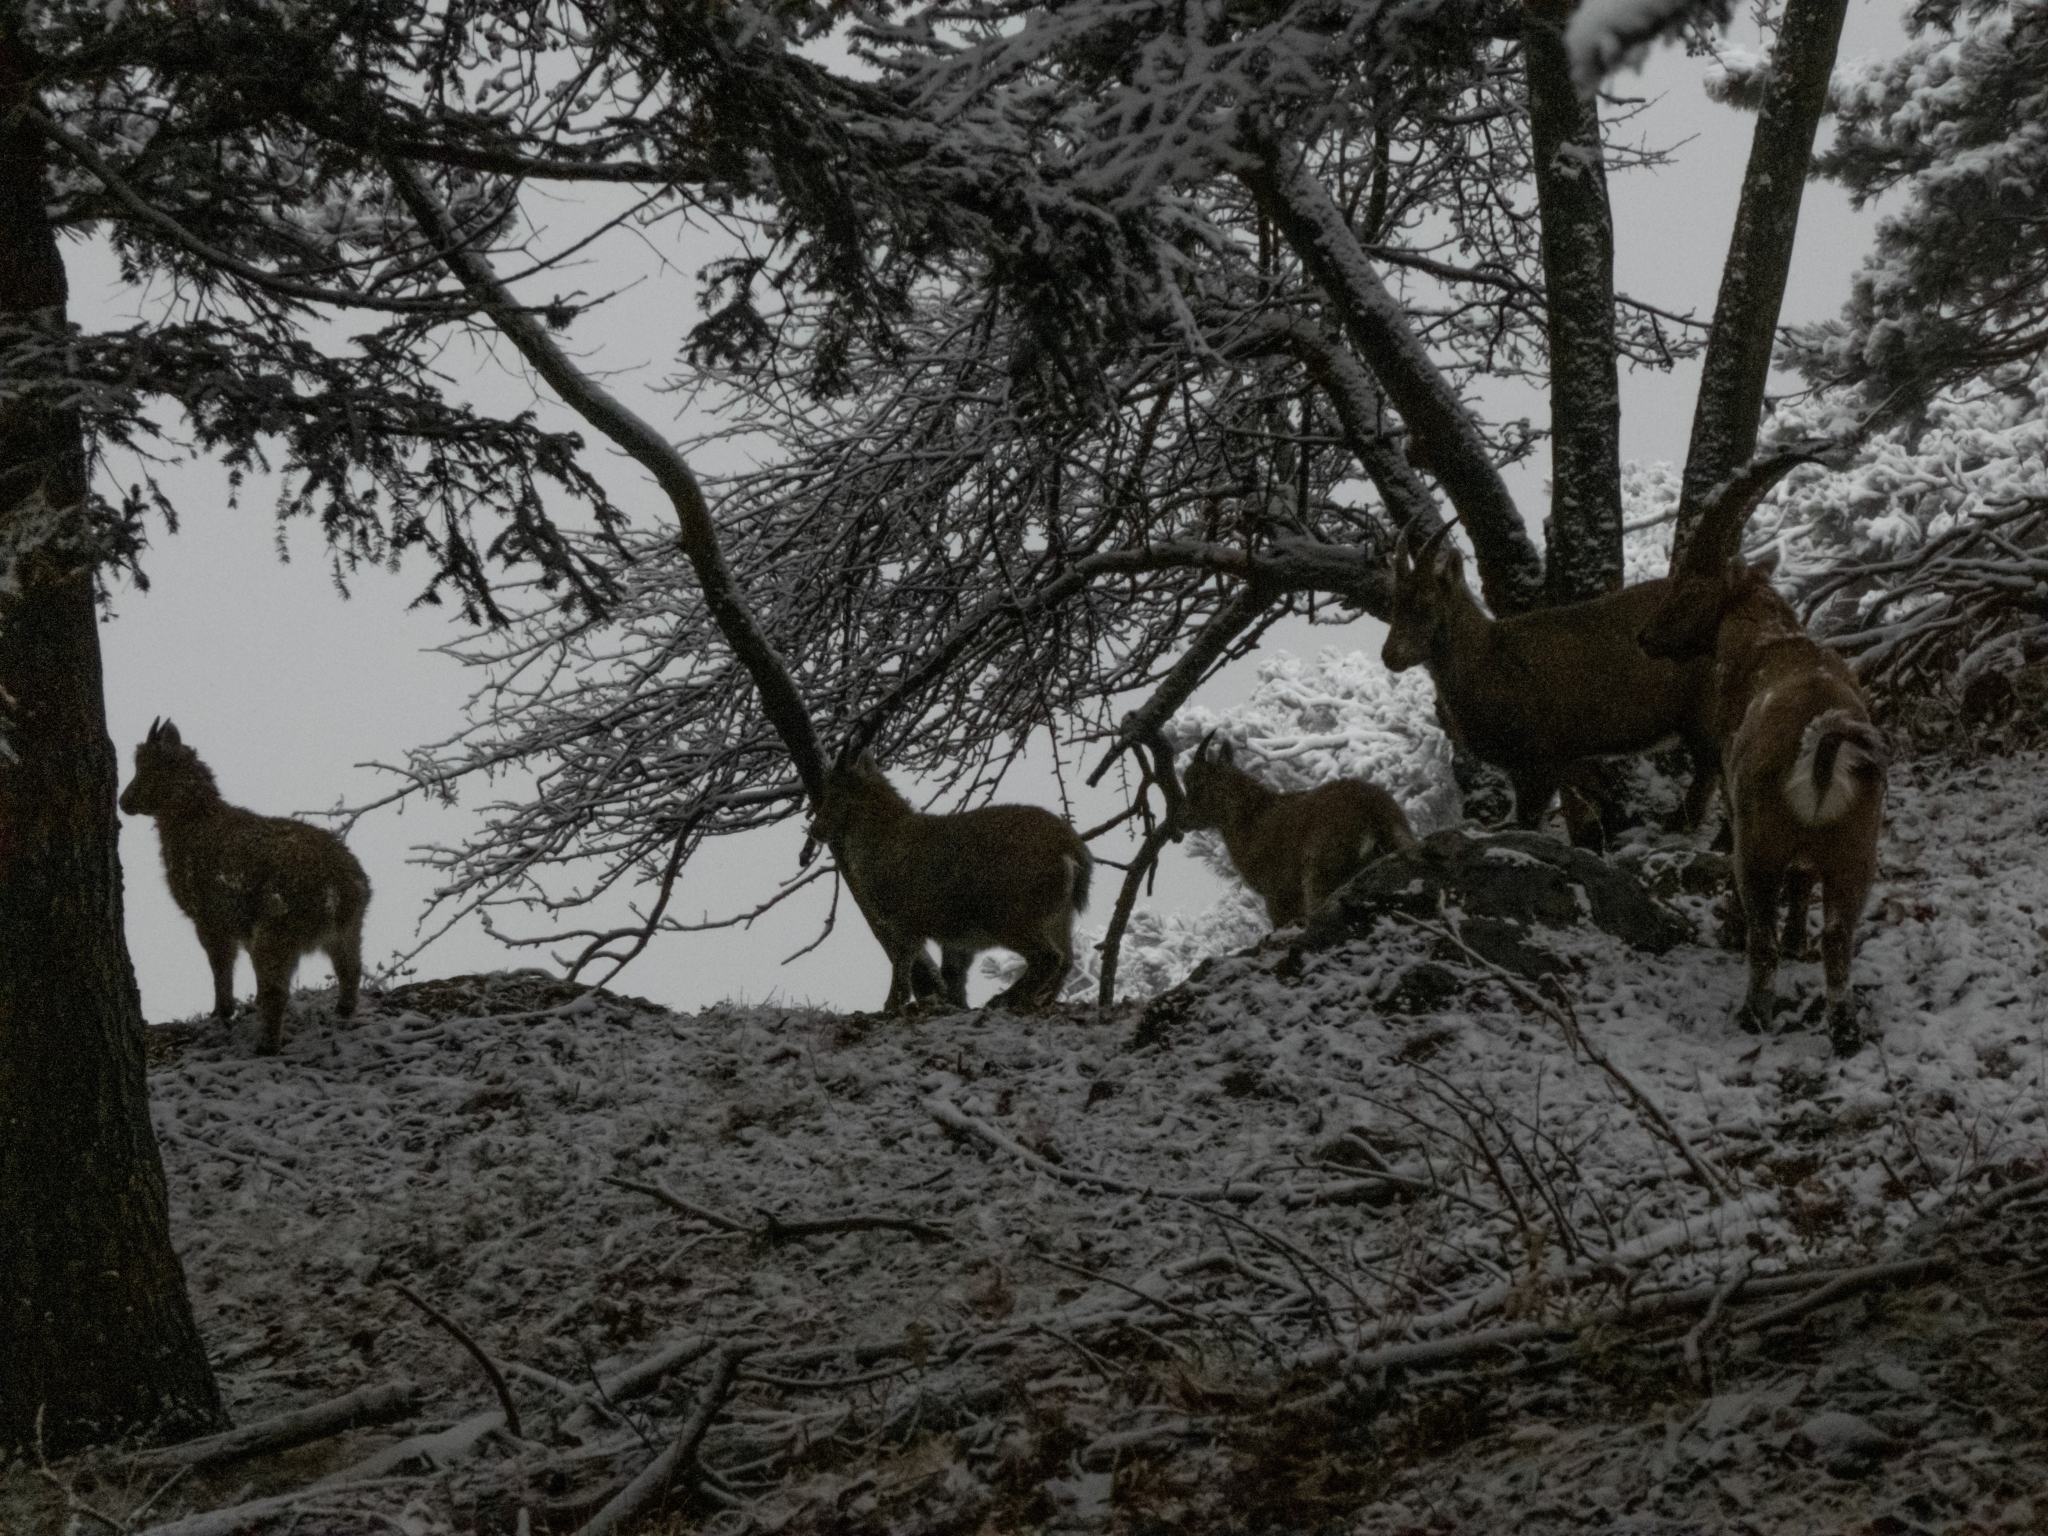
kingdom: Animalia
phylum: Chordata
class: Mammalia
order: Artiodactyla
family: Bovidae
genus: Capra
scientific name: Capra ibex
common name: Alpine ibex
